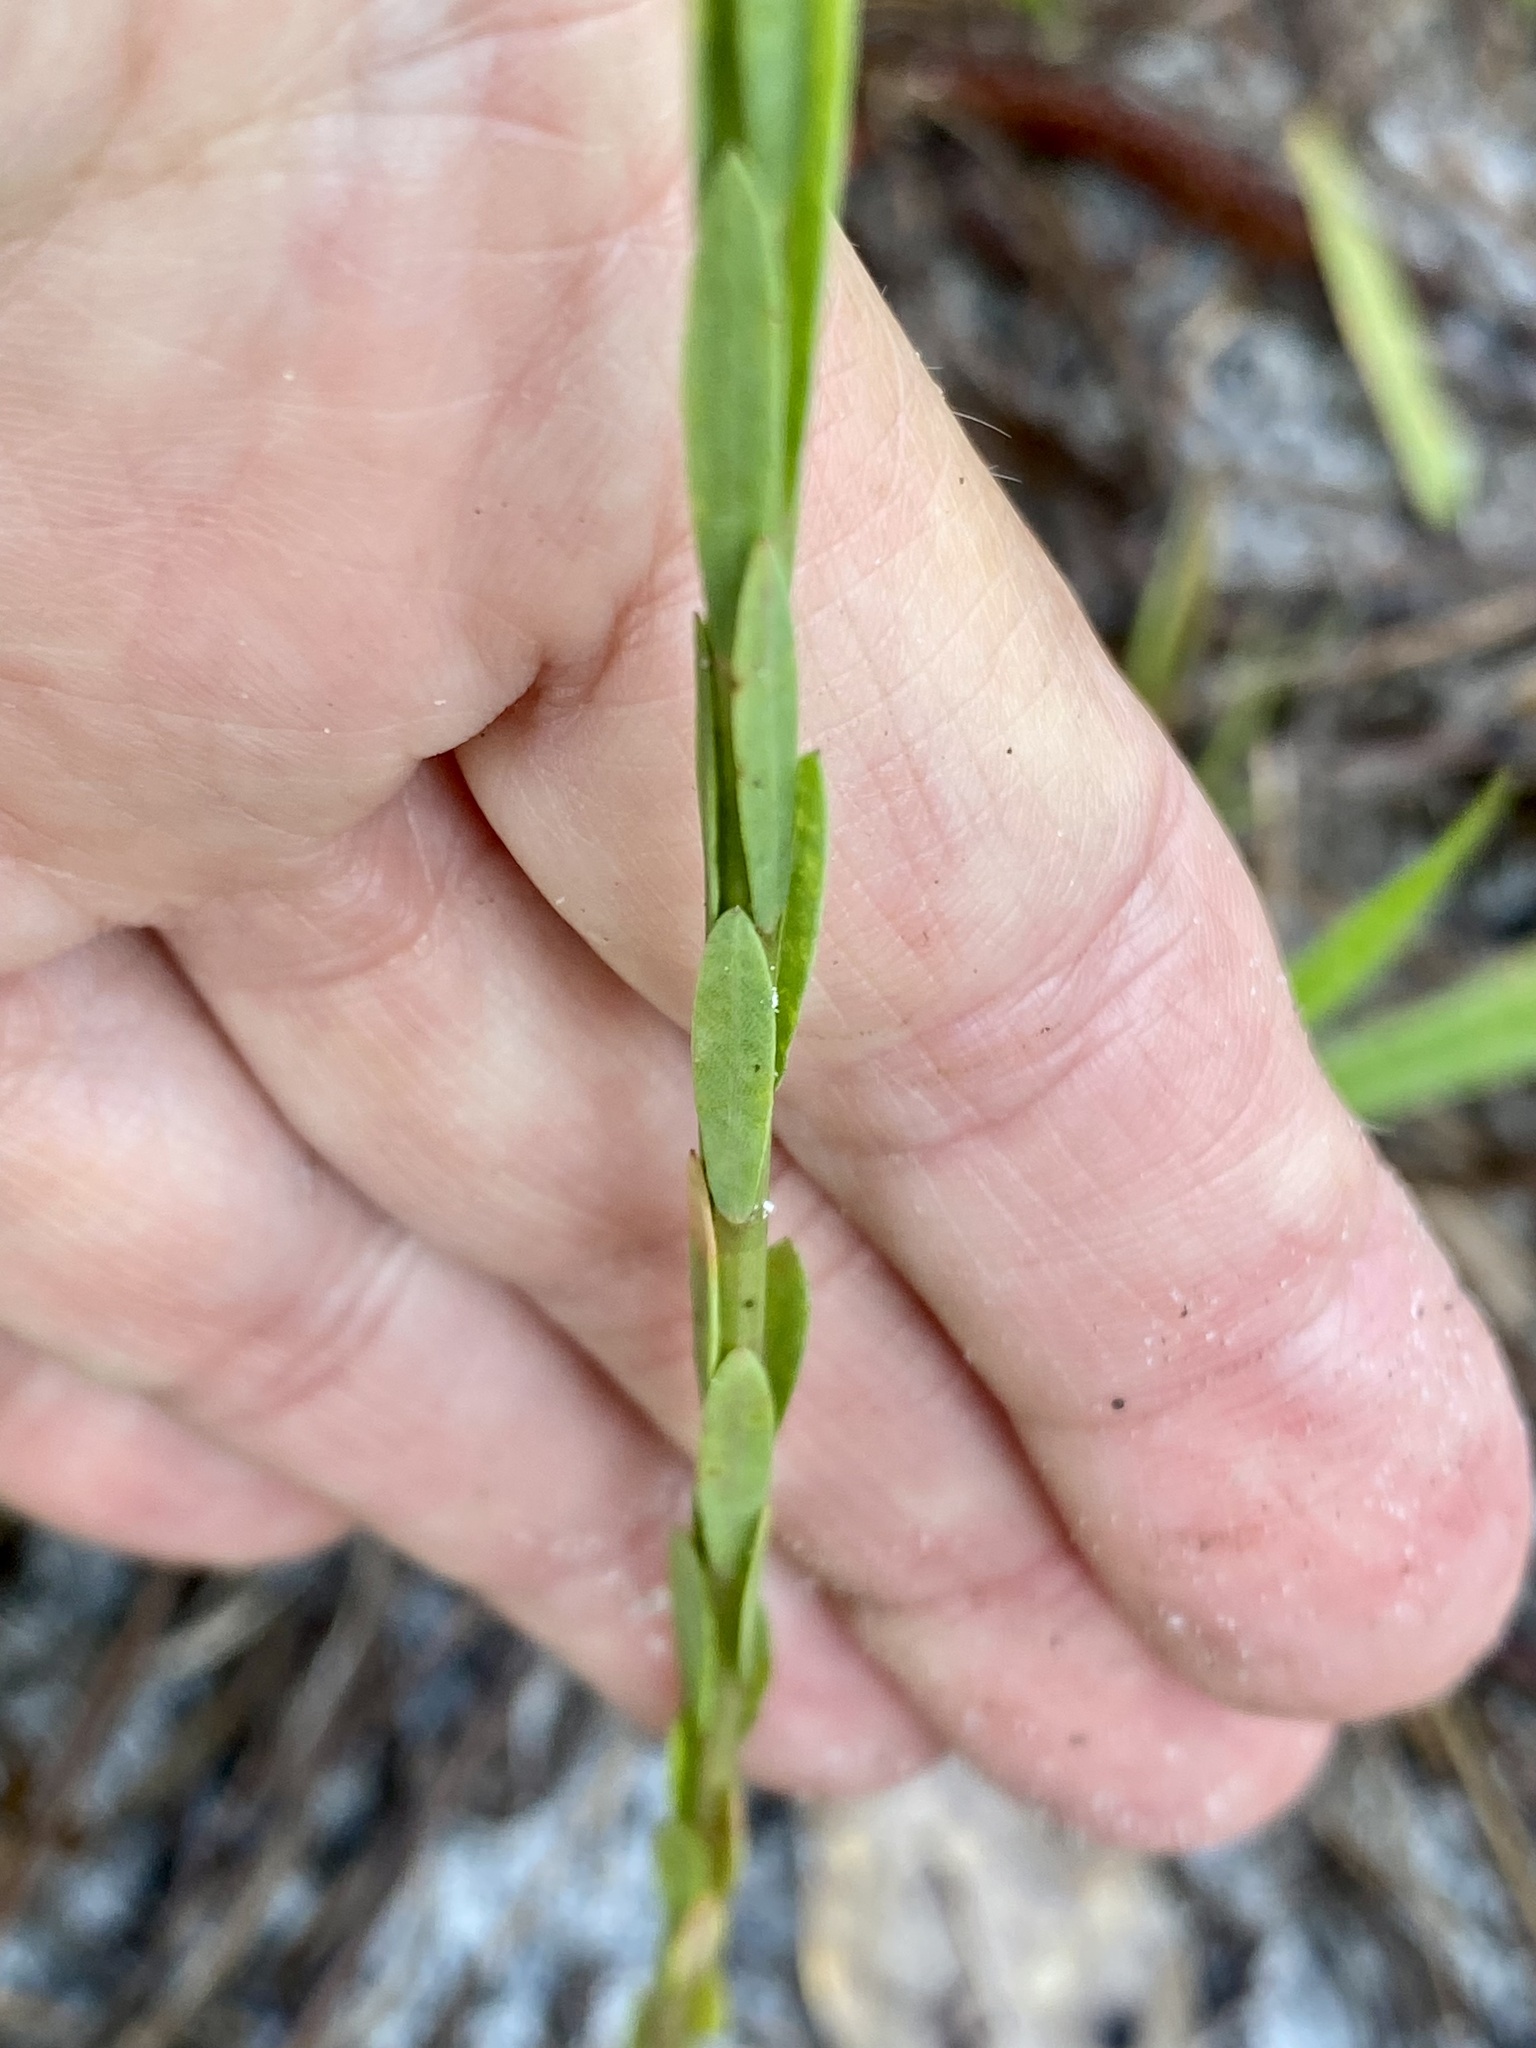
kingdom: Plantae
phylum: Tracheophyta
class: Magnoliopsida
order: Malpighiales
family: Linaceae
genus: Linum
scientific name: Linum floridanum
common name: Florida yellow flax
